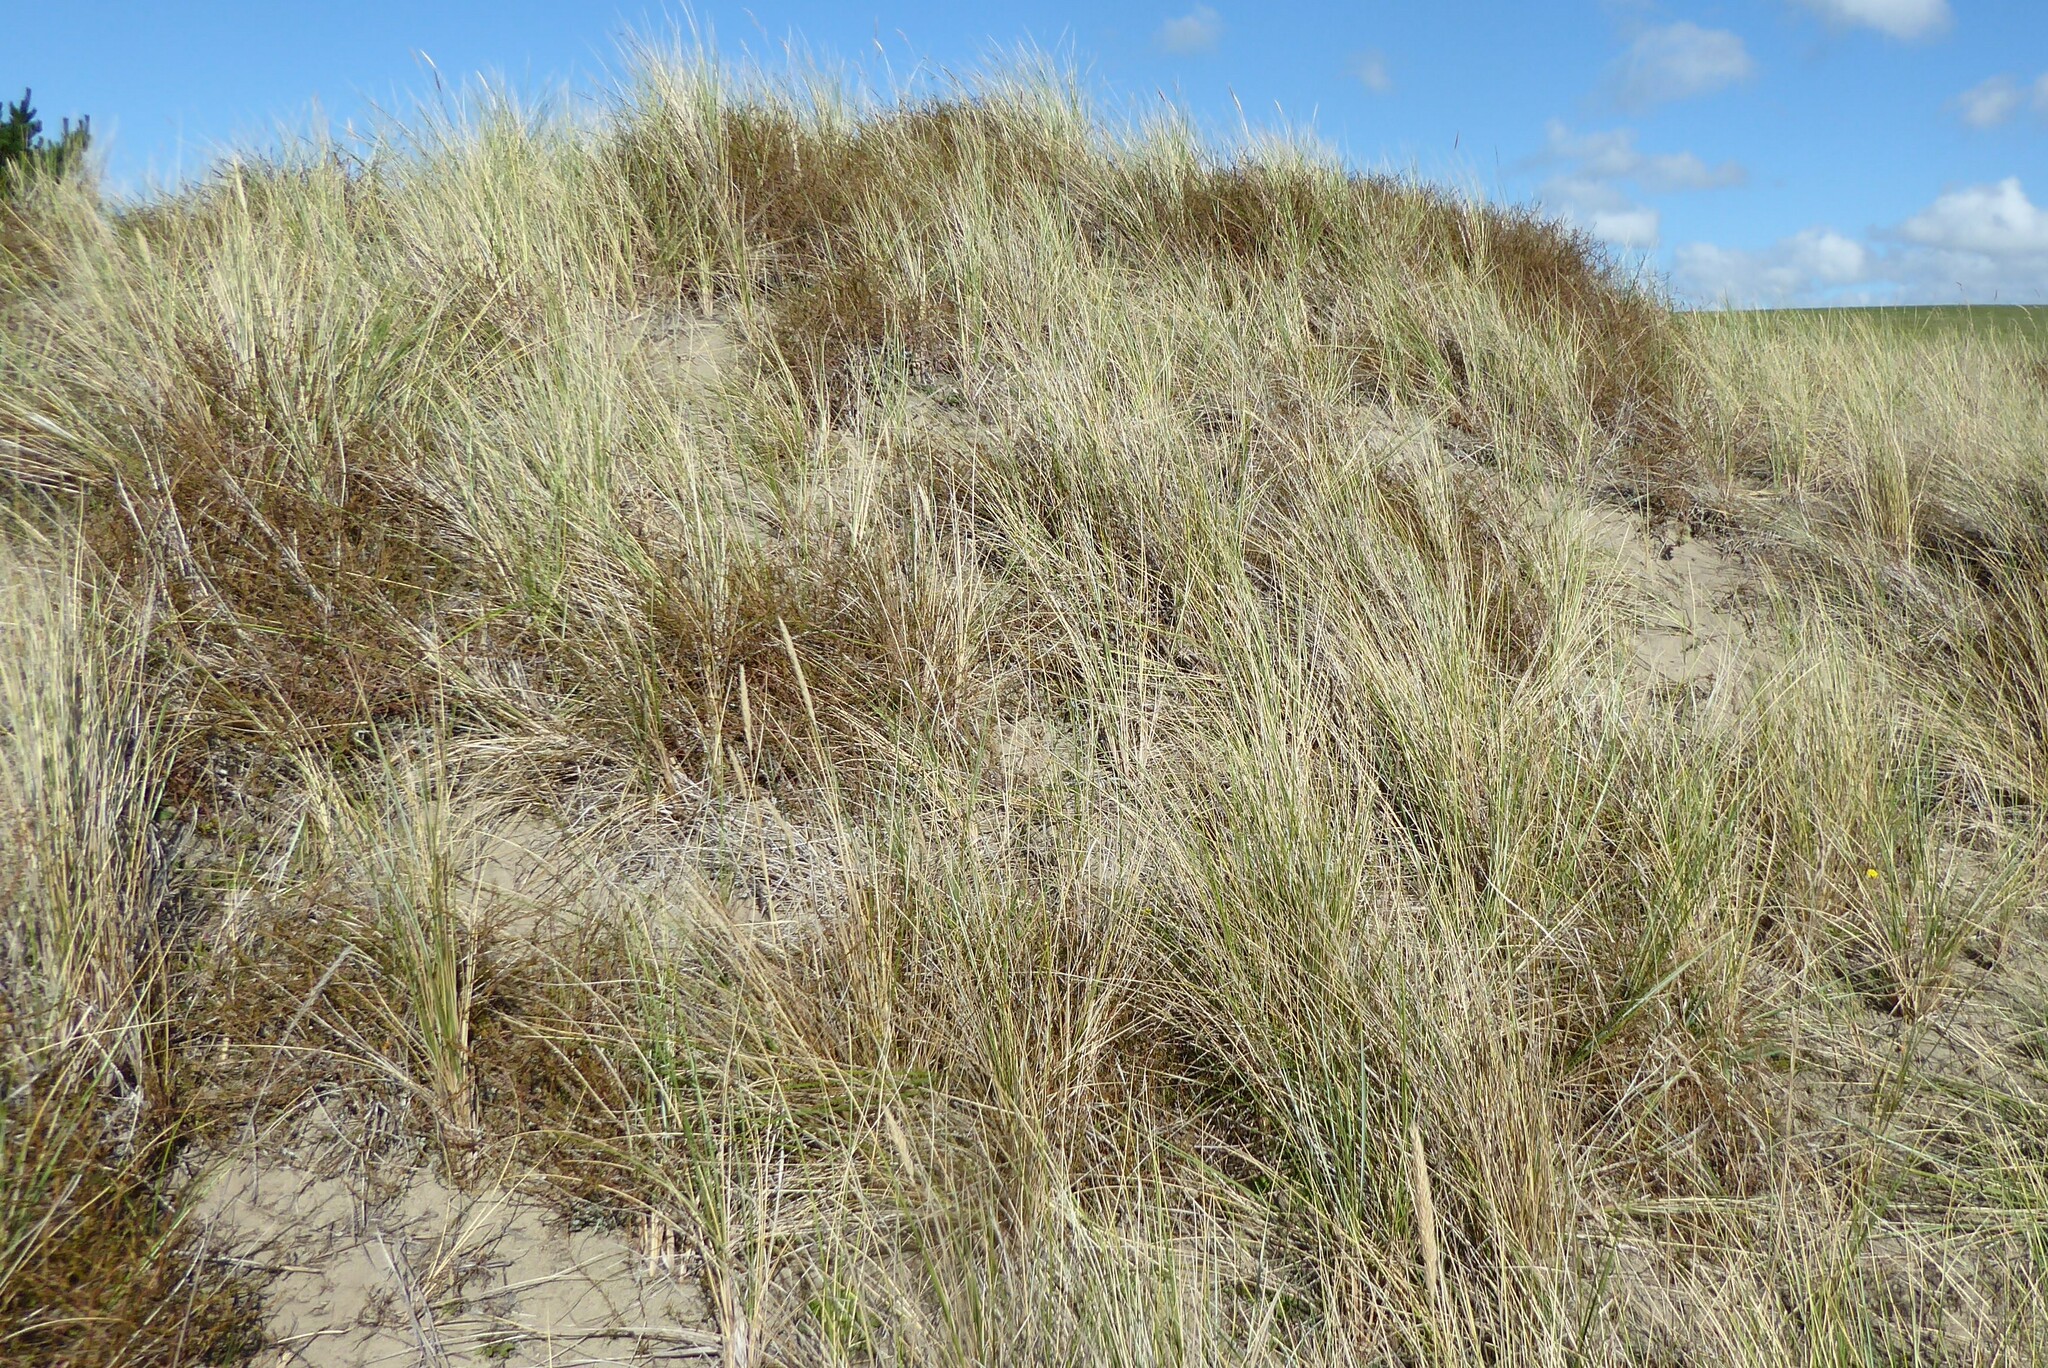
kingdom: Plantae
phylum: Tracheophyta
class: Magnoliopsida
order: Gentianales
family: Rubiaceae
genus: Coprosma
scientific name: Coprosma acerosa
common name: Sand coprosma
